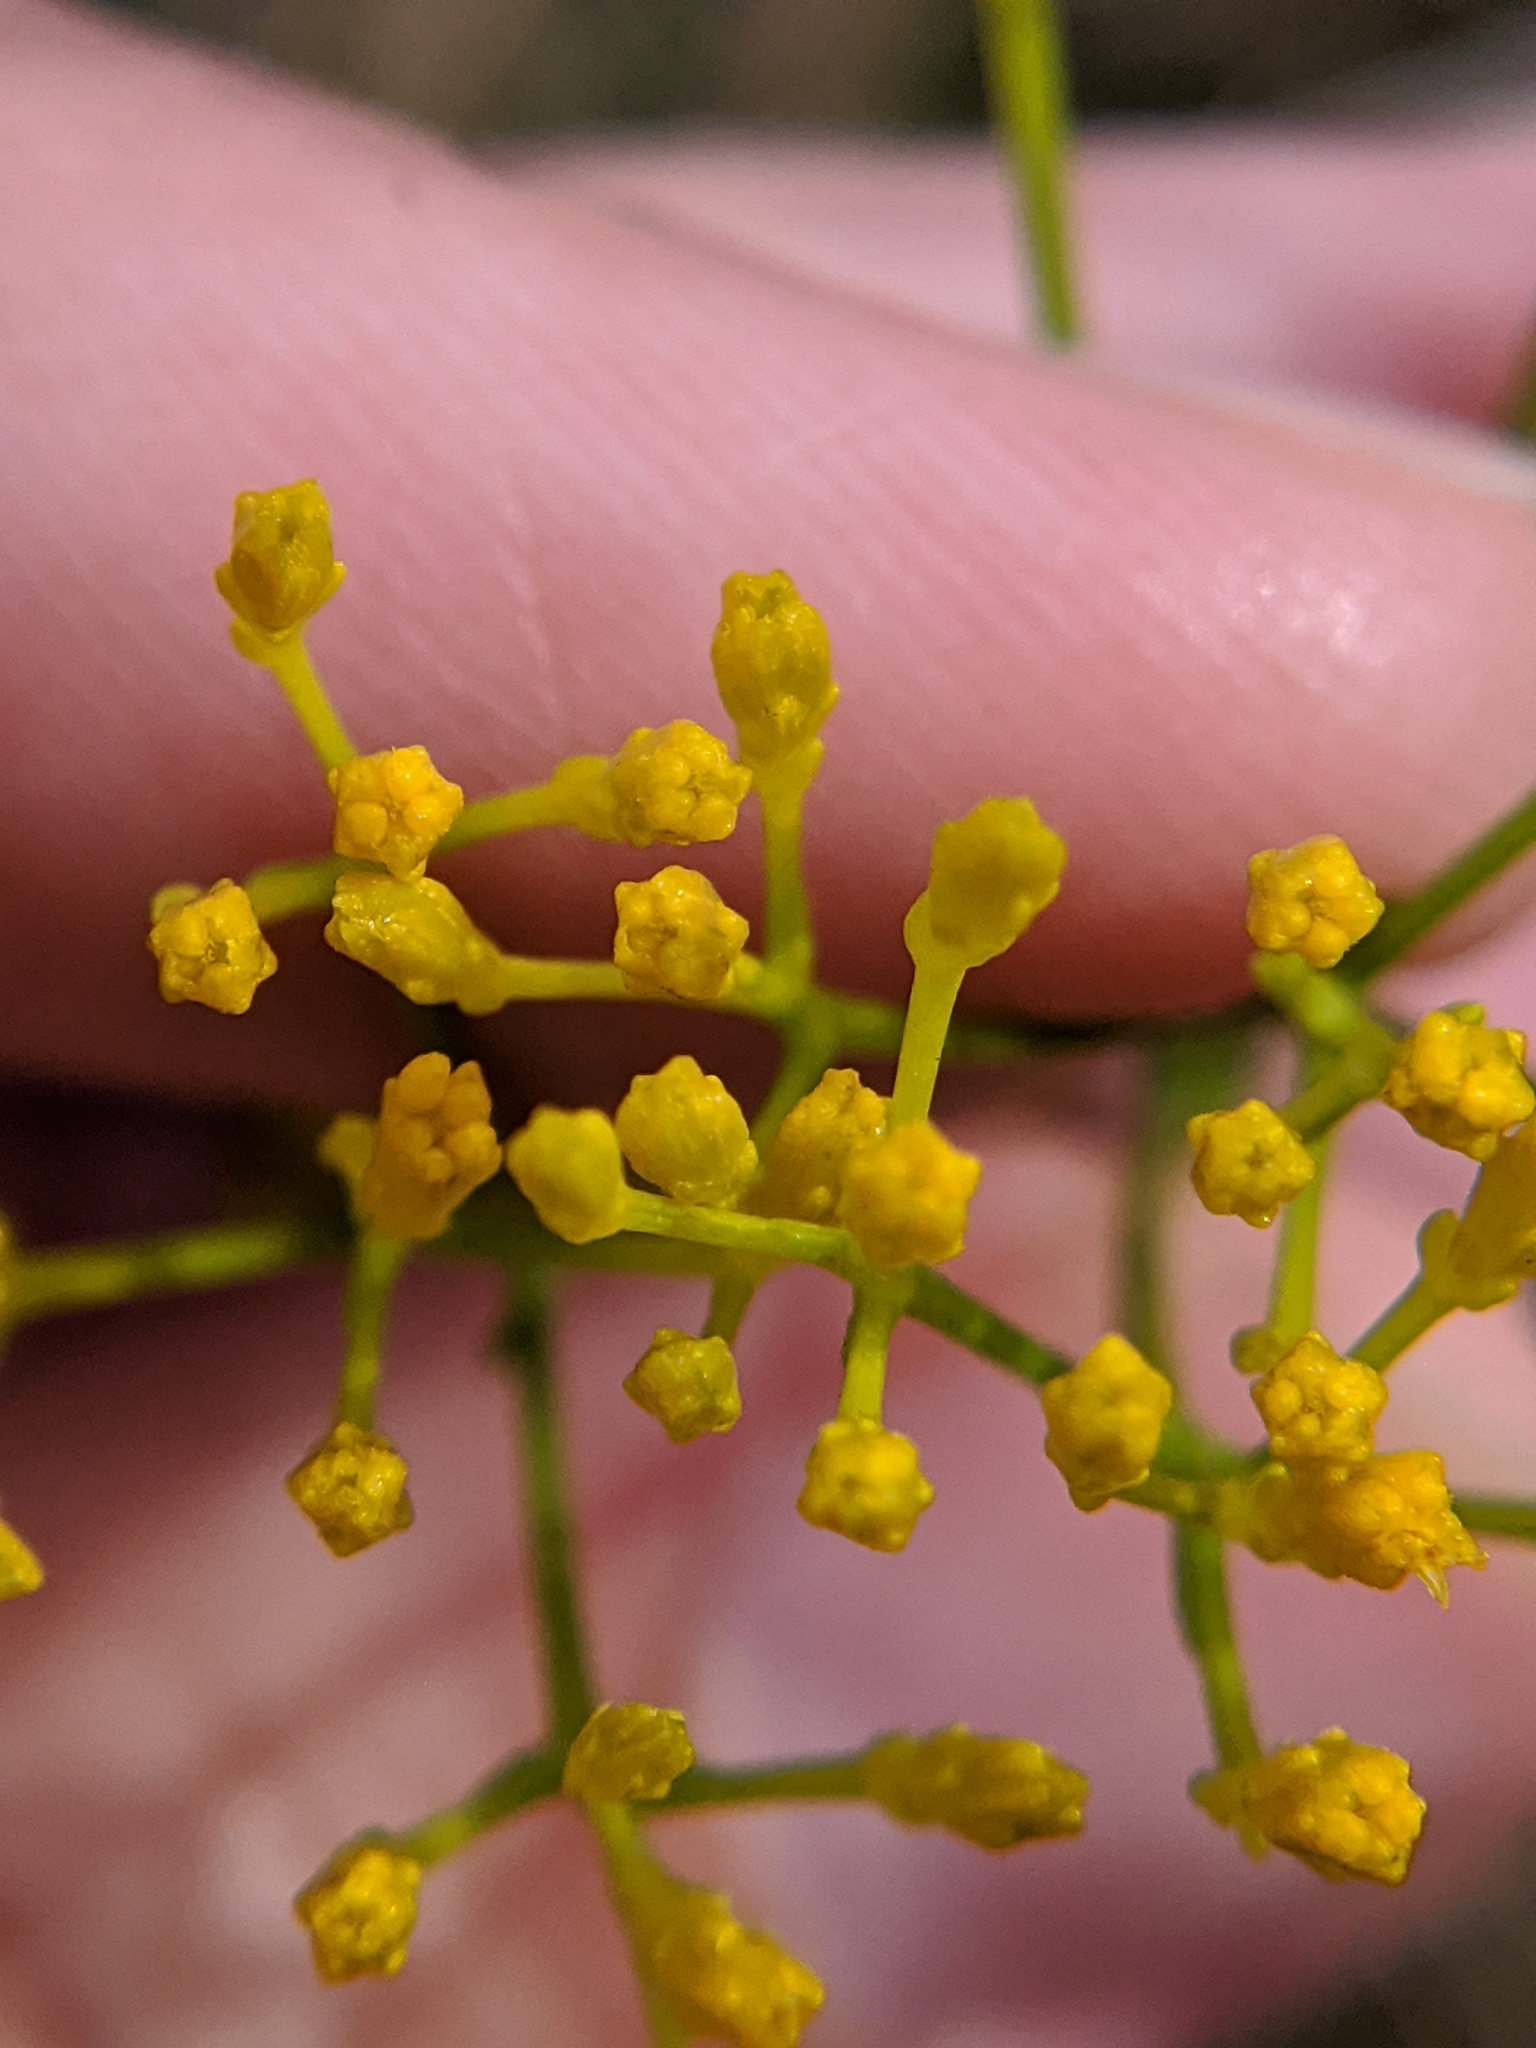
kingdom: Plantae
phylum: Tracheophyta
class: Magnoliopsida
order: Asterales
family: Asteraceae
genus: Bigelowia
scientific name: Bigelowia nudata
